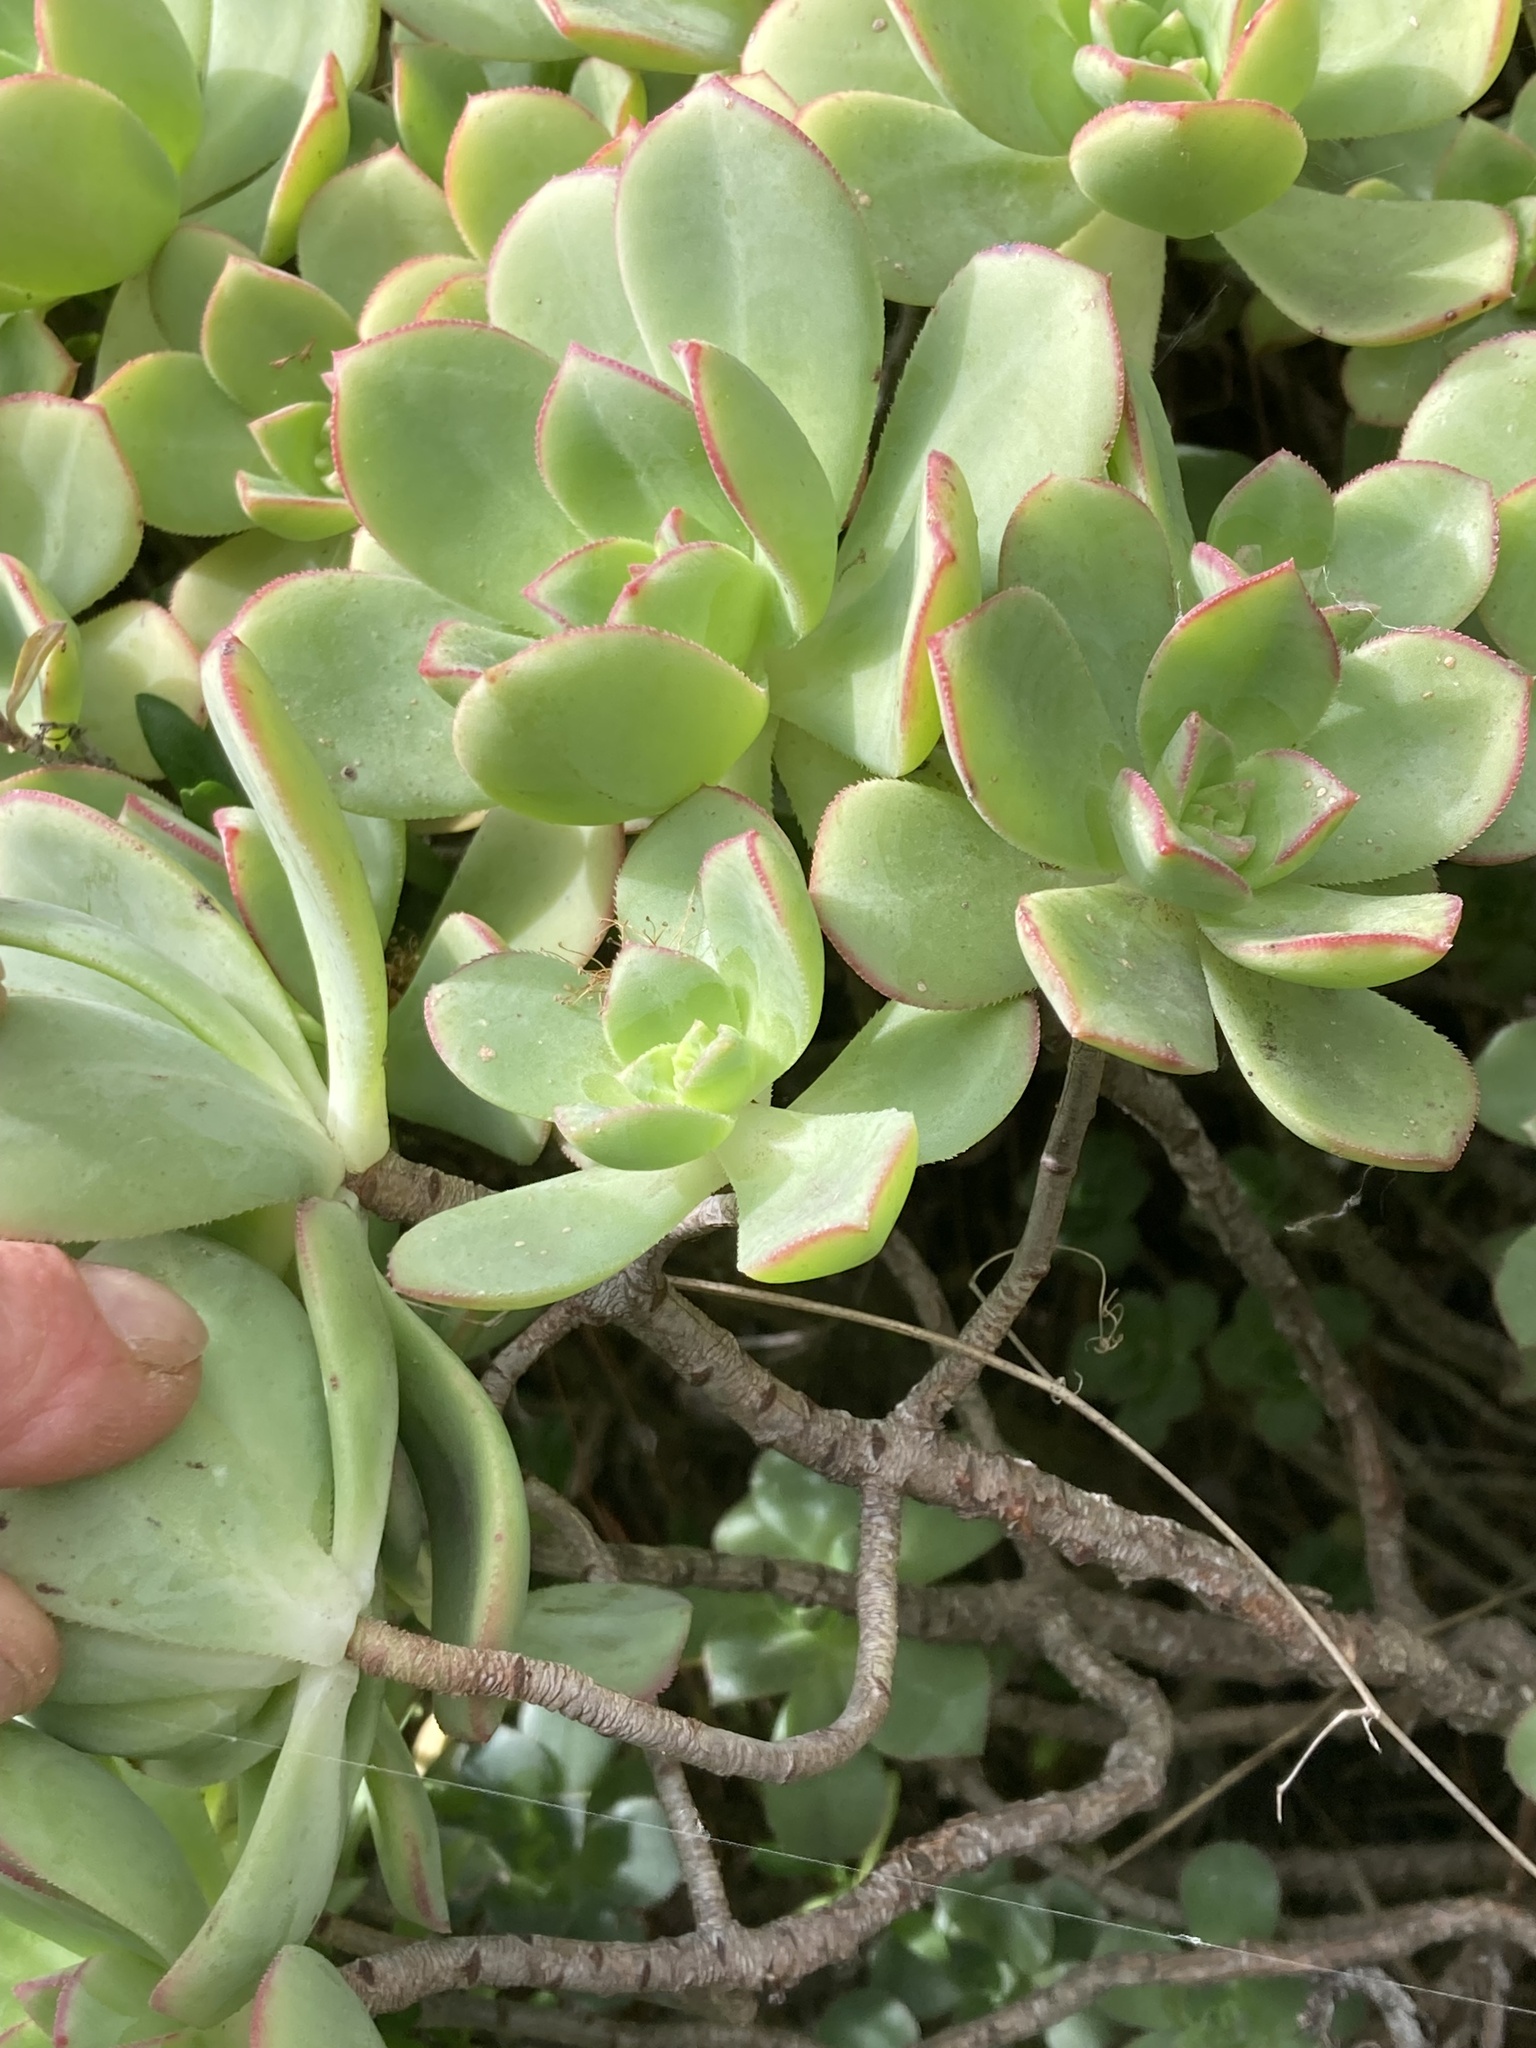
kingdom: Plantae
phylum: Tracheophyta
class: Magnoliopsida
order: Saxifragales
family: Crassulaceae
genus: Aeonium
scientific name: Aeonium haworthii
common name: Haworth's aeonium
